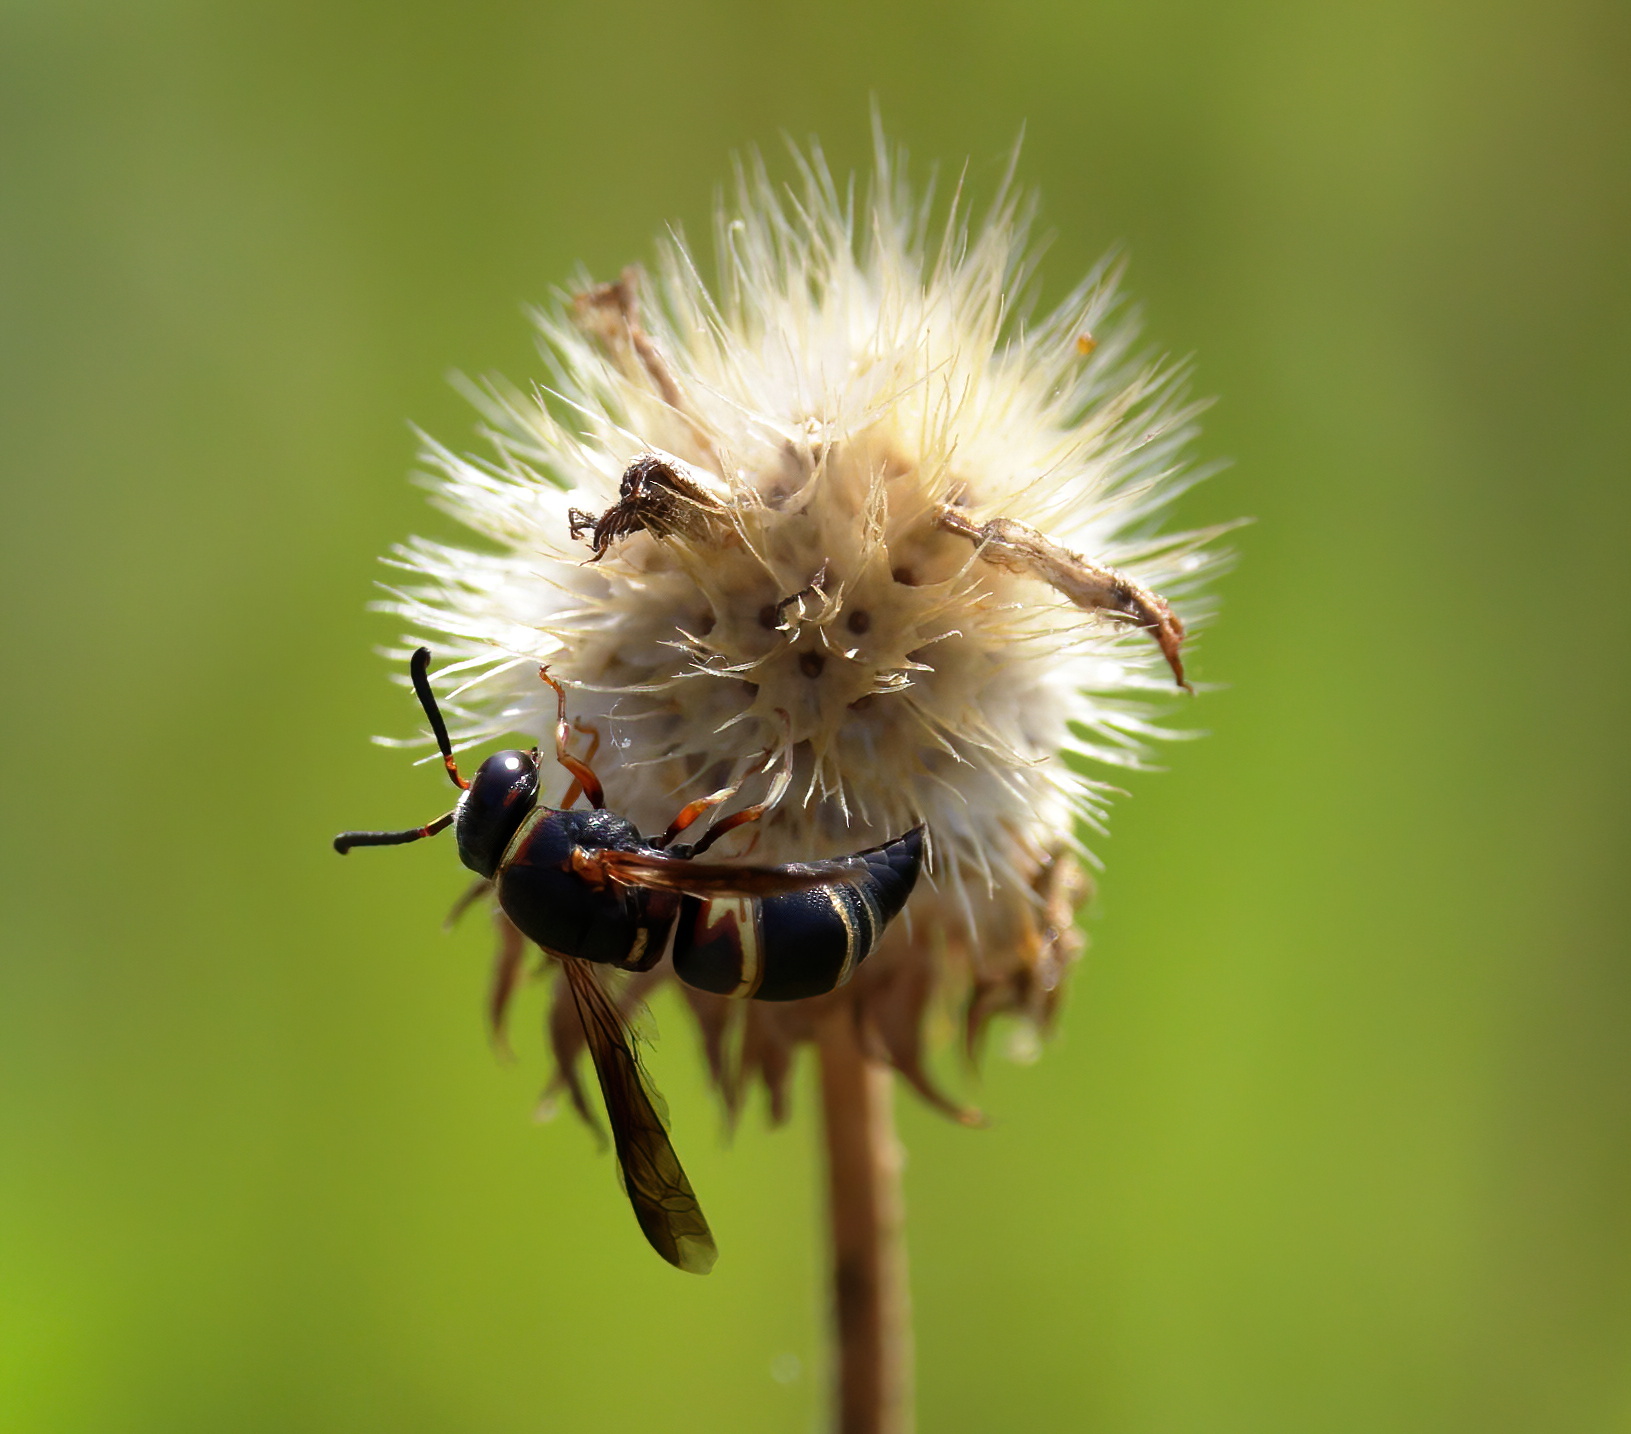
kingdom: Animalia
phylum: Arthropoda
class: Insecta
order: Hymenoptera
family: Eumenidae
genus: Euodynerus
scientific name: Euodynerus hidalgo
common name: Wasp
